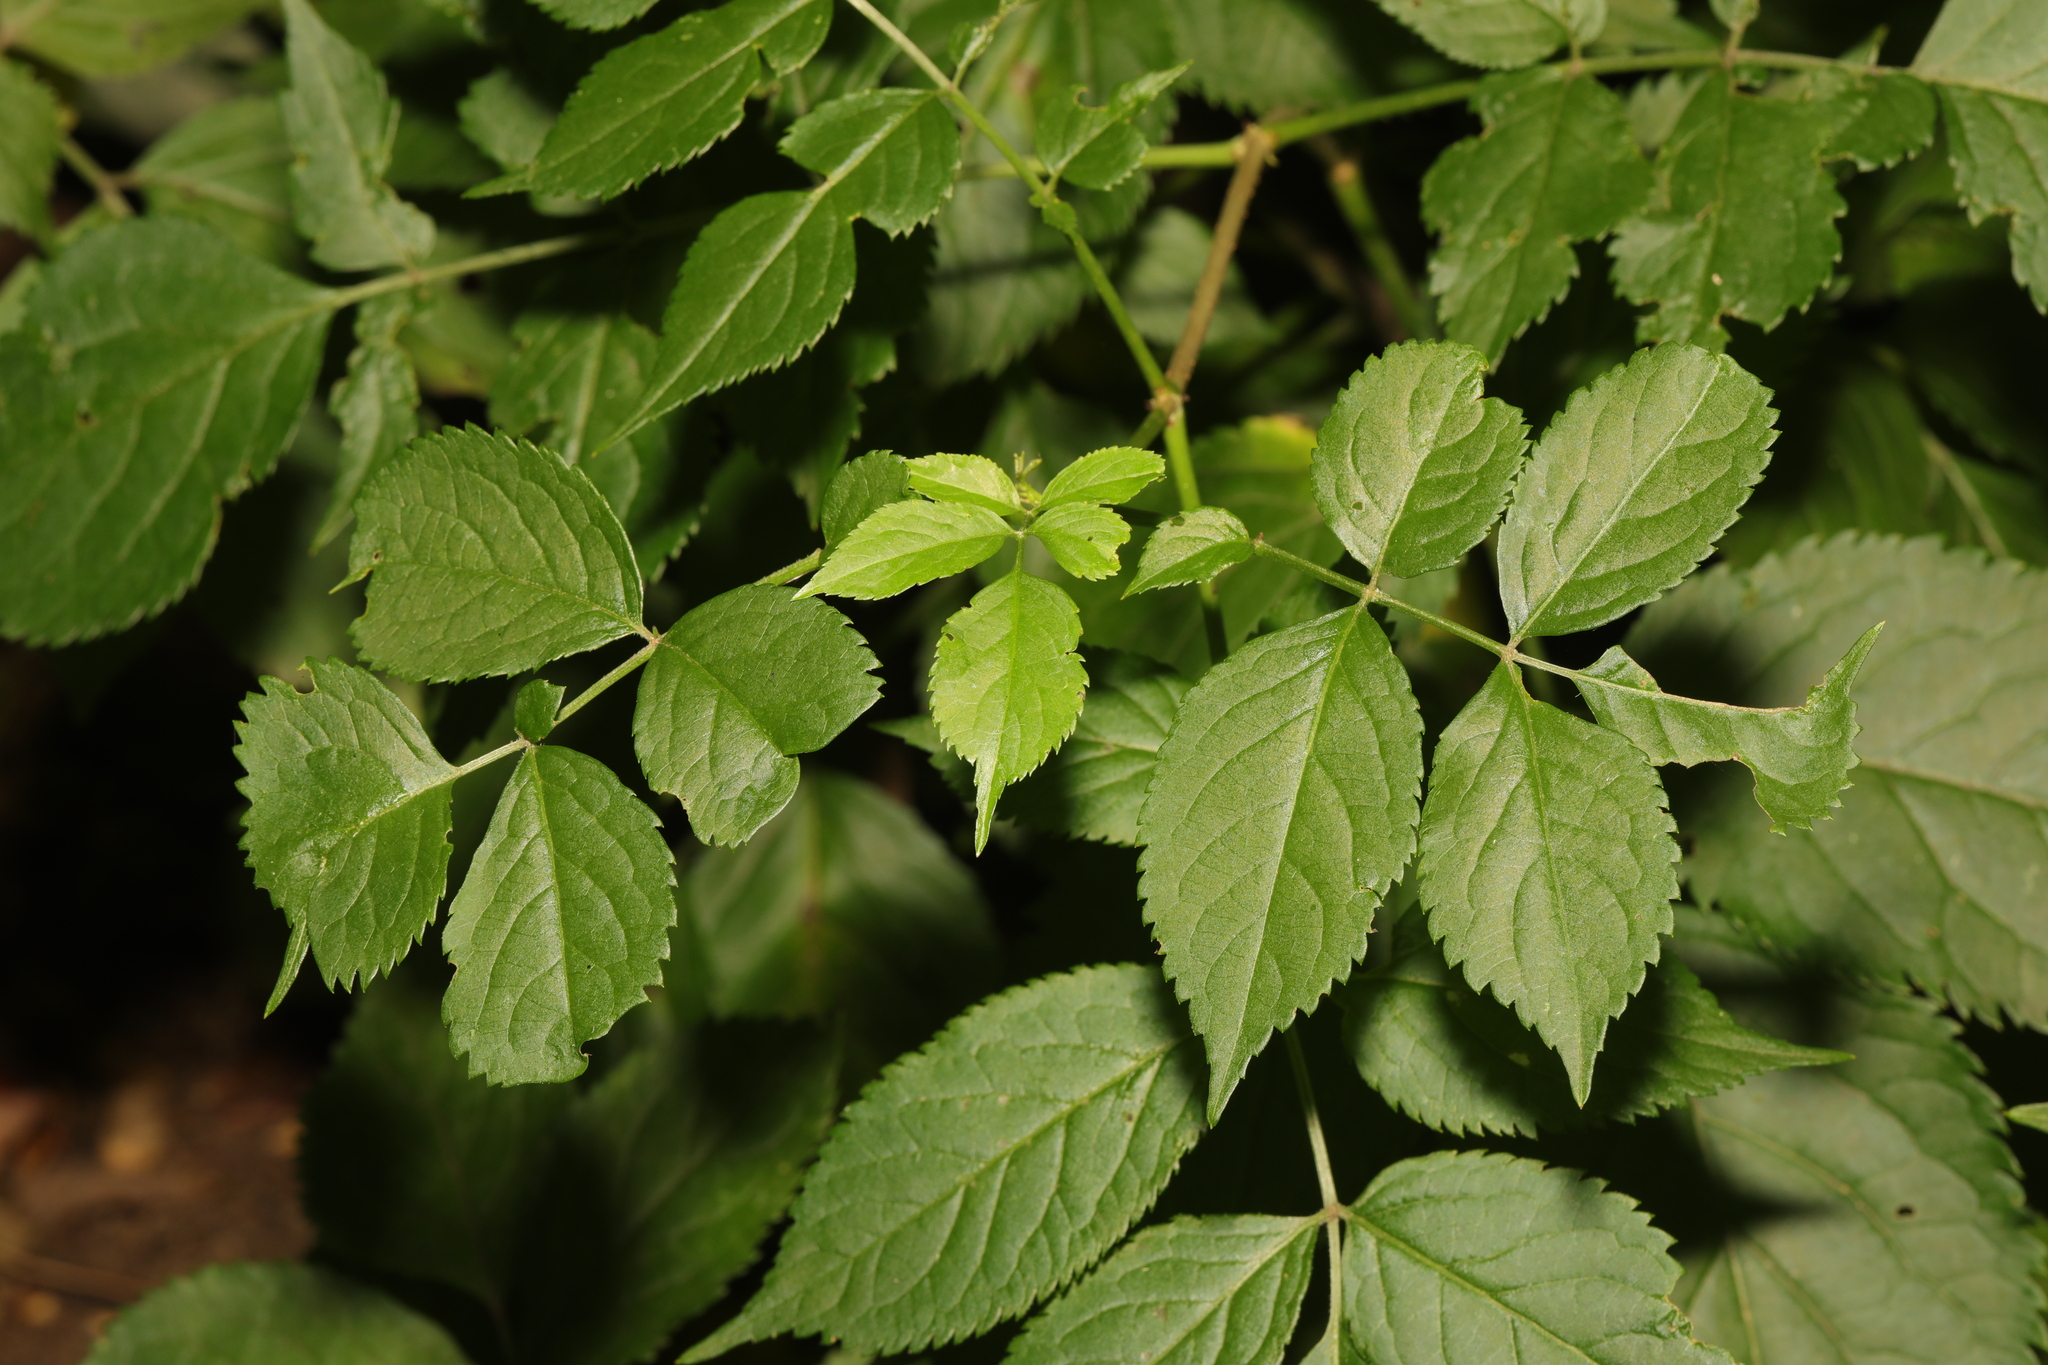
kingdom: Plantae
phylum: Tracheophyta
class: Magnoliopsida
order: Dipsacales
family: Viburnaceae
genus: Sambucus
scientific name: Sambucus nigra
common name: Elder
